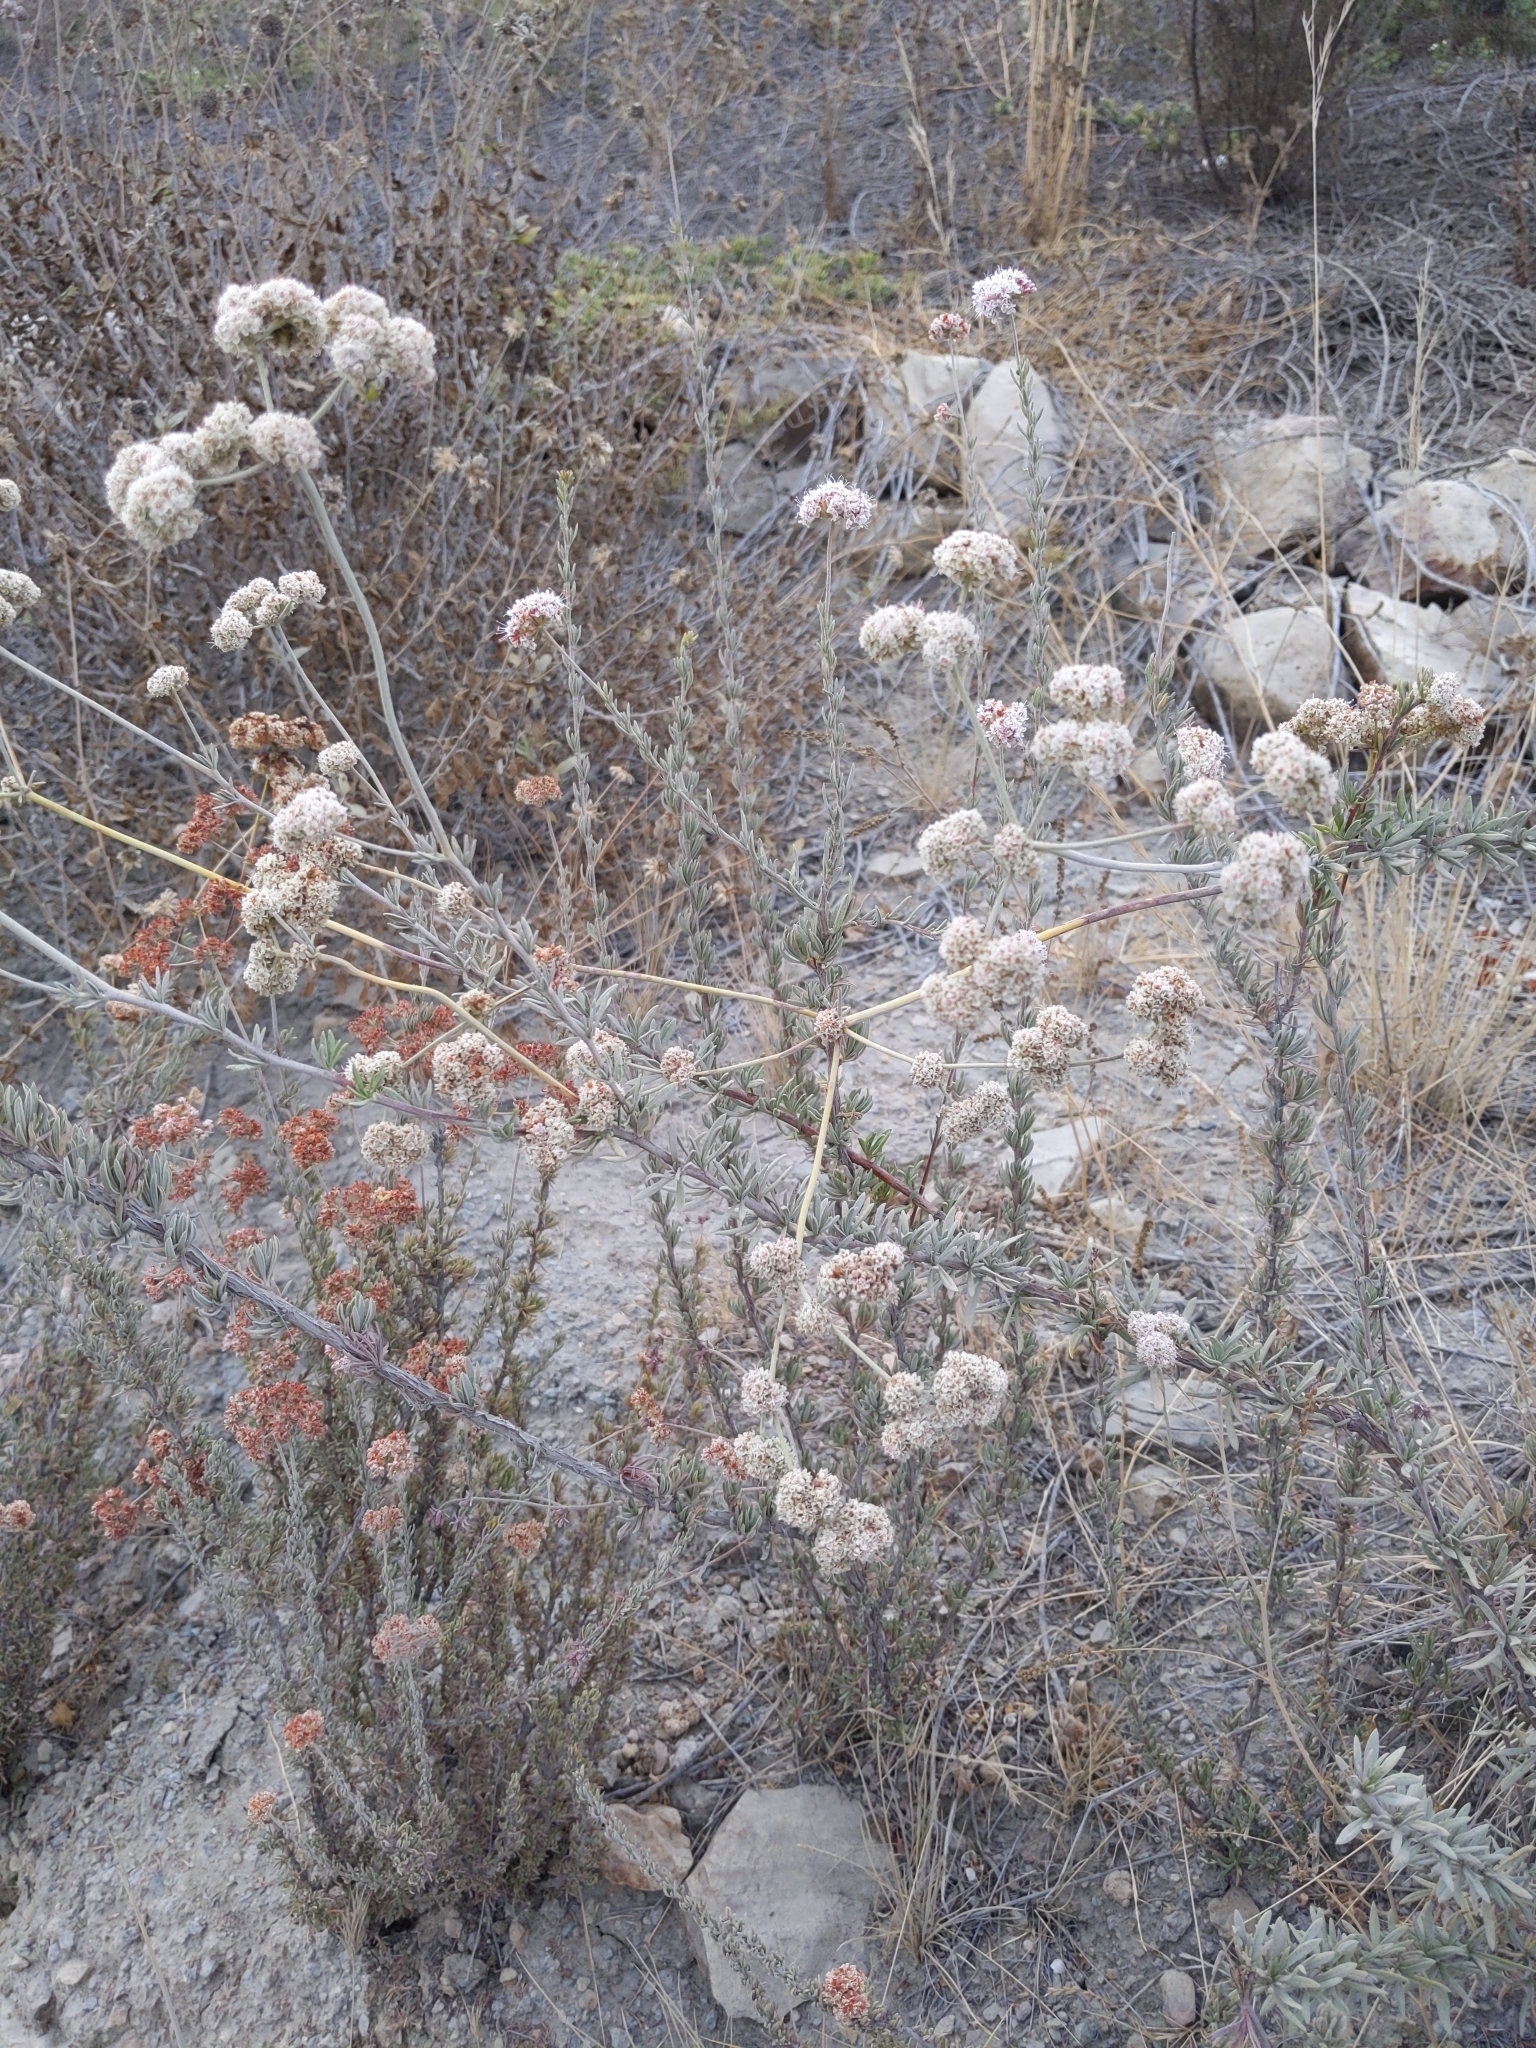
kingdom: Plantae
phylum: Tracheophyta
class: Magnoliopsida
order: Caryophyllales
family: Polygonaceae
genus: Eriogonum
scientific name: Eriogonum fasciculatum
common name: California wild buckwheat
